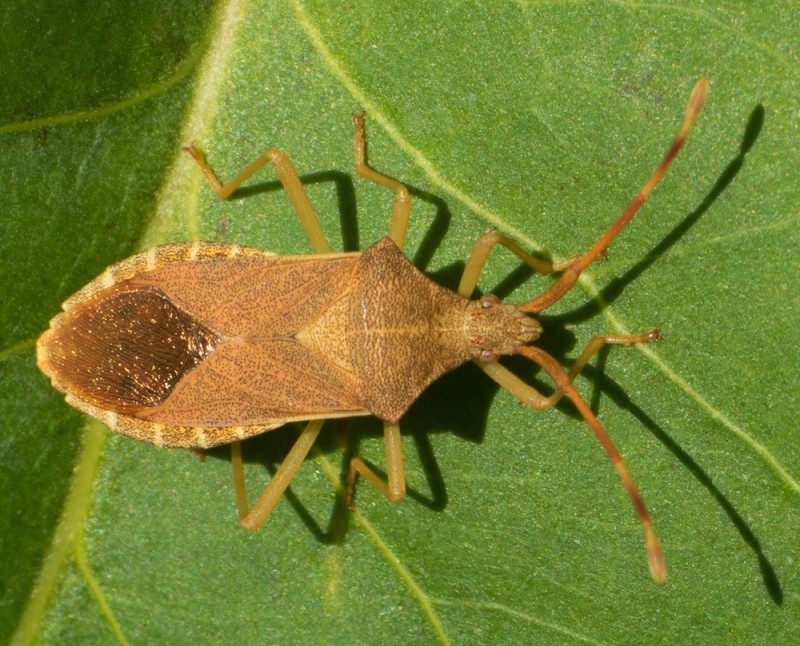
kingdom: Animalia
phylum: Arthropoda
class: Insecta
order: Hemiptera
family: Coreidae
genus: Gonocerus
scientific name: Gonocerus acuteangulatus
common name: Box bug
